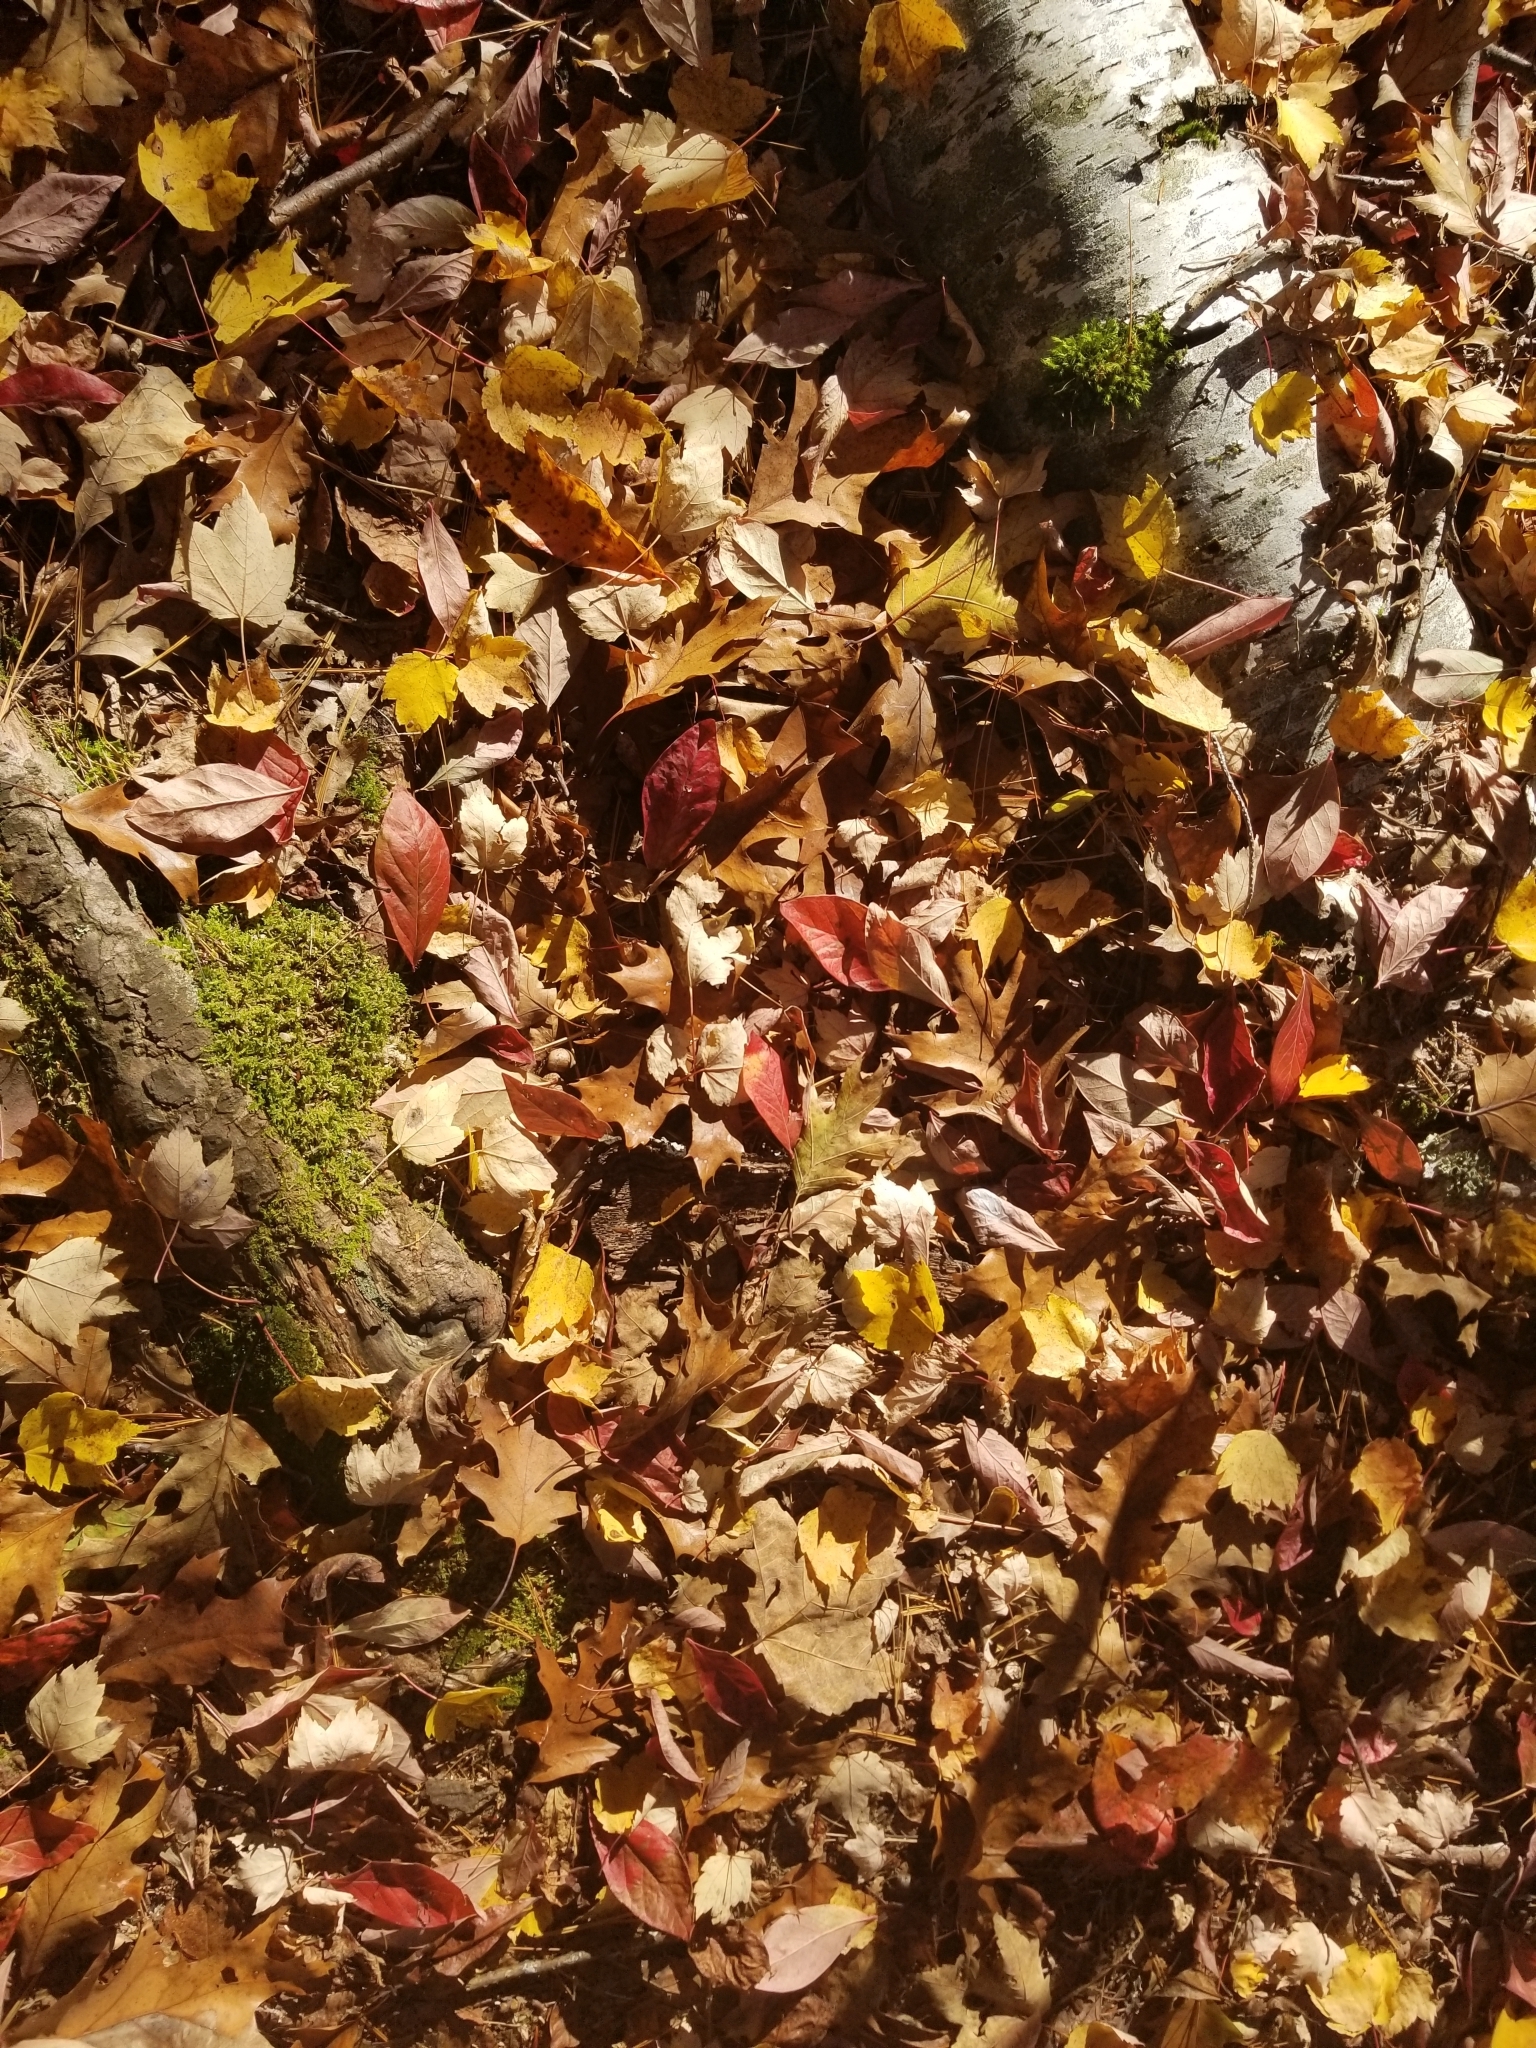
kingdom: Plantae
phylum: Tracheophyta
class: Magnoliopsida
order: Cornales
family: Nyssaceae
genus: Nyssa
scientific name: Nyssa sylvatica
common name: Black tupelo
